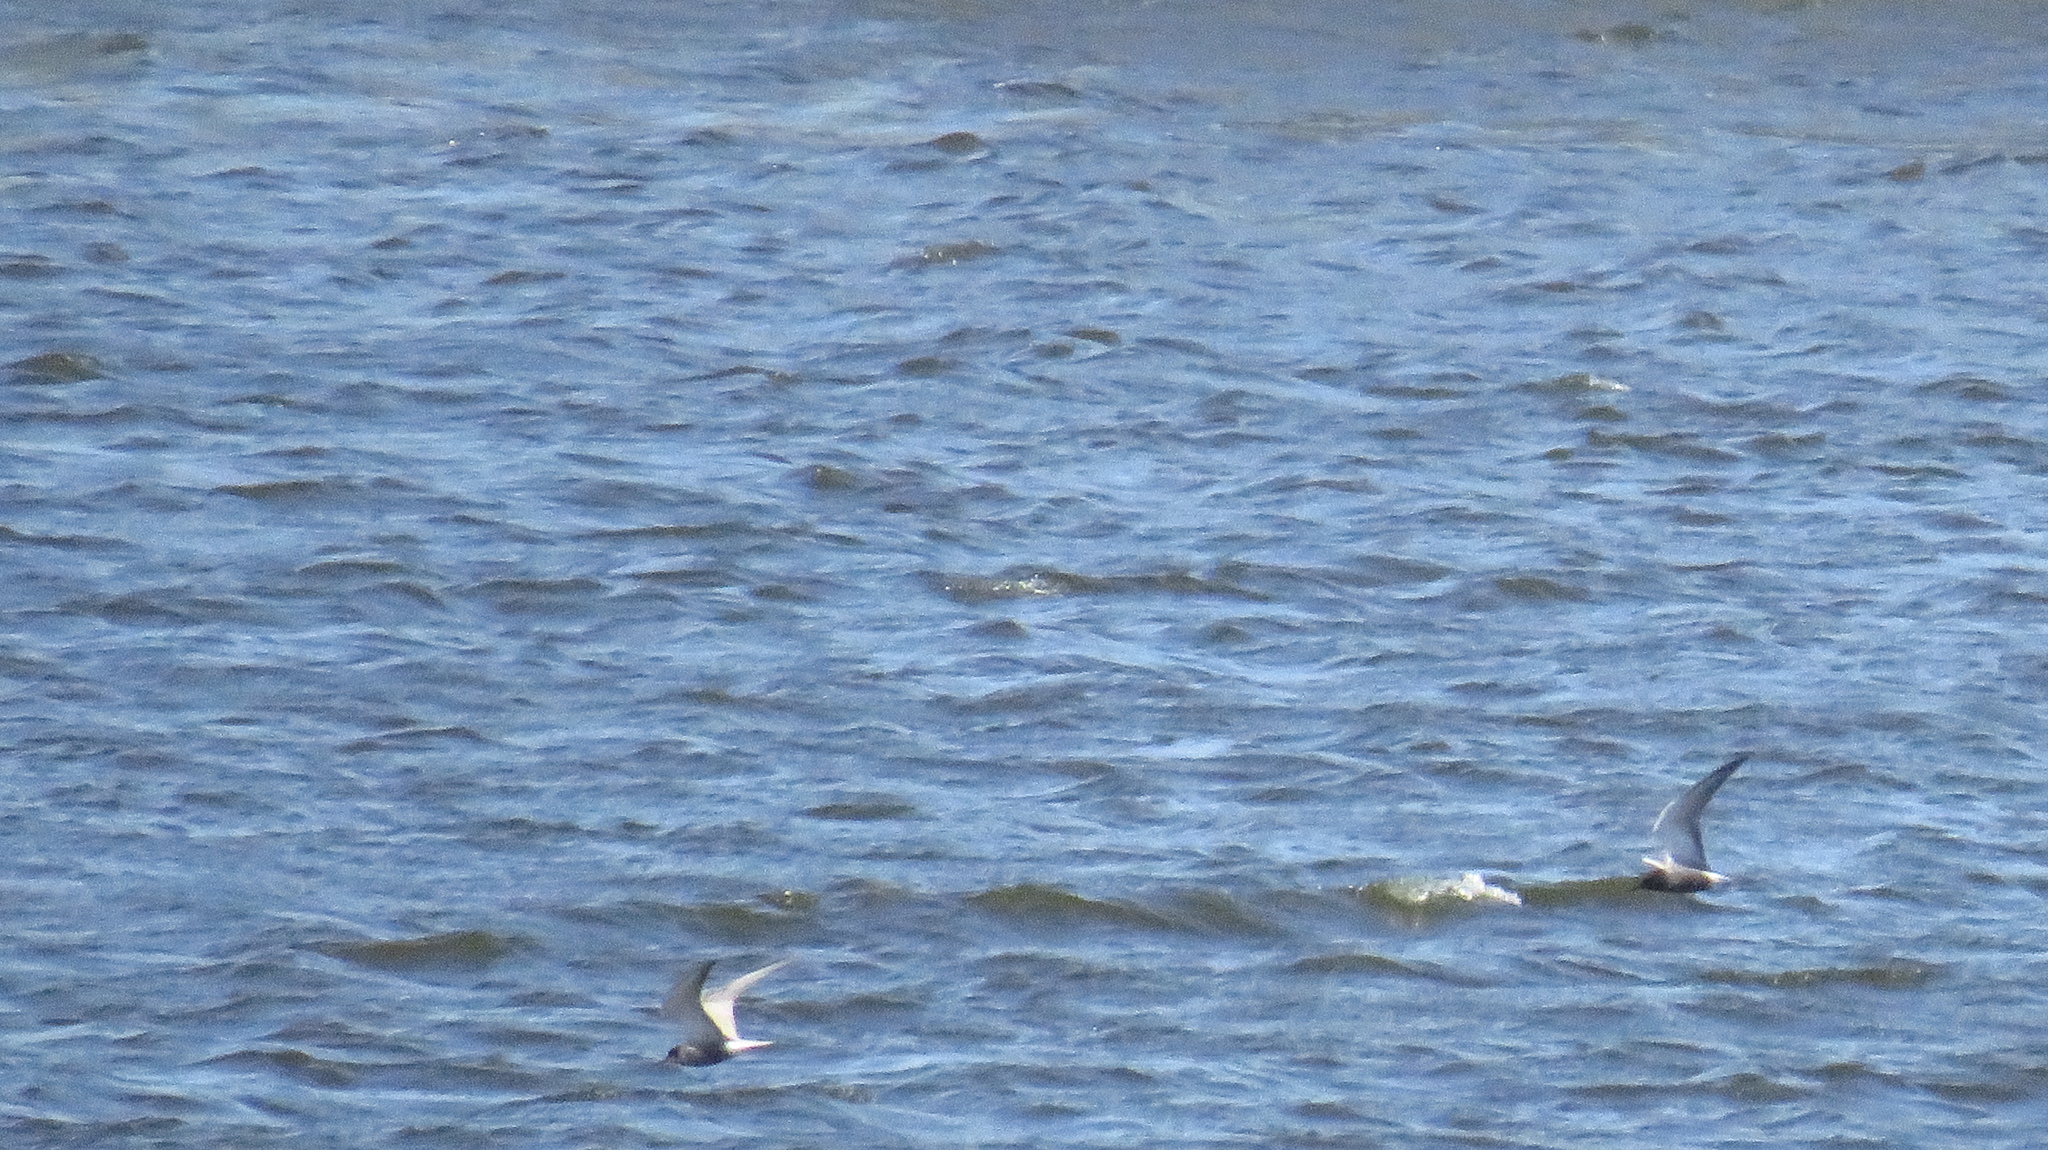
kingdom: Animalia
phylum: Chordata
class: Aves
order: Charadriiformes
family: Laridae
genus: Chlidonias
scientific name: Chlidonias niger
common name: Black tern
